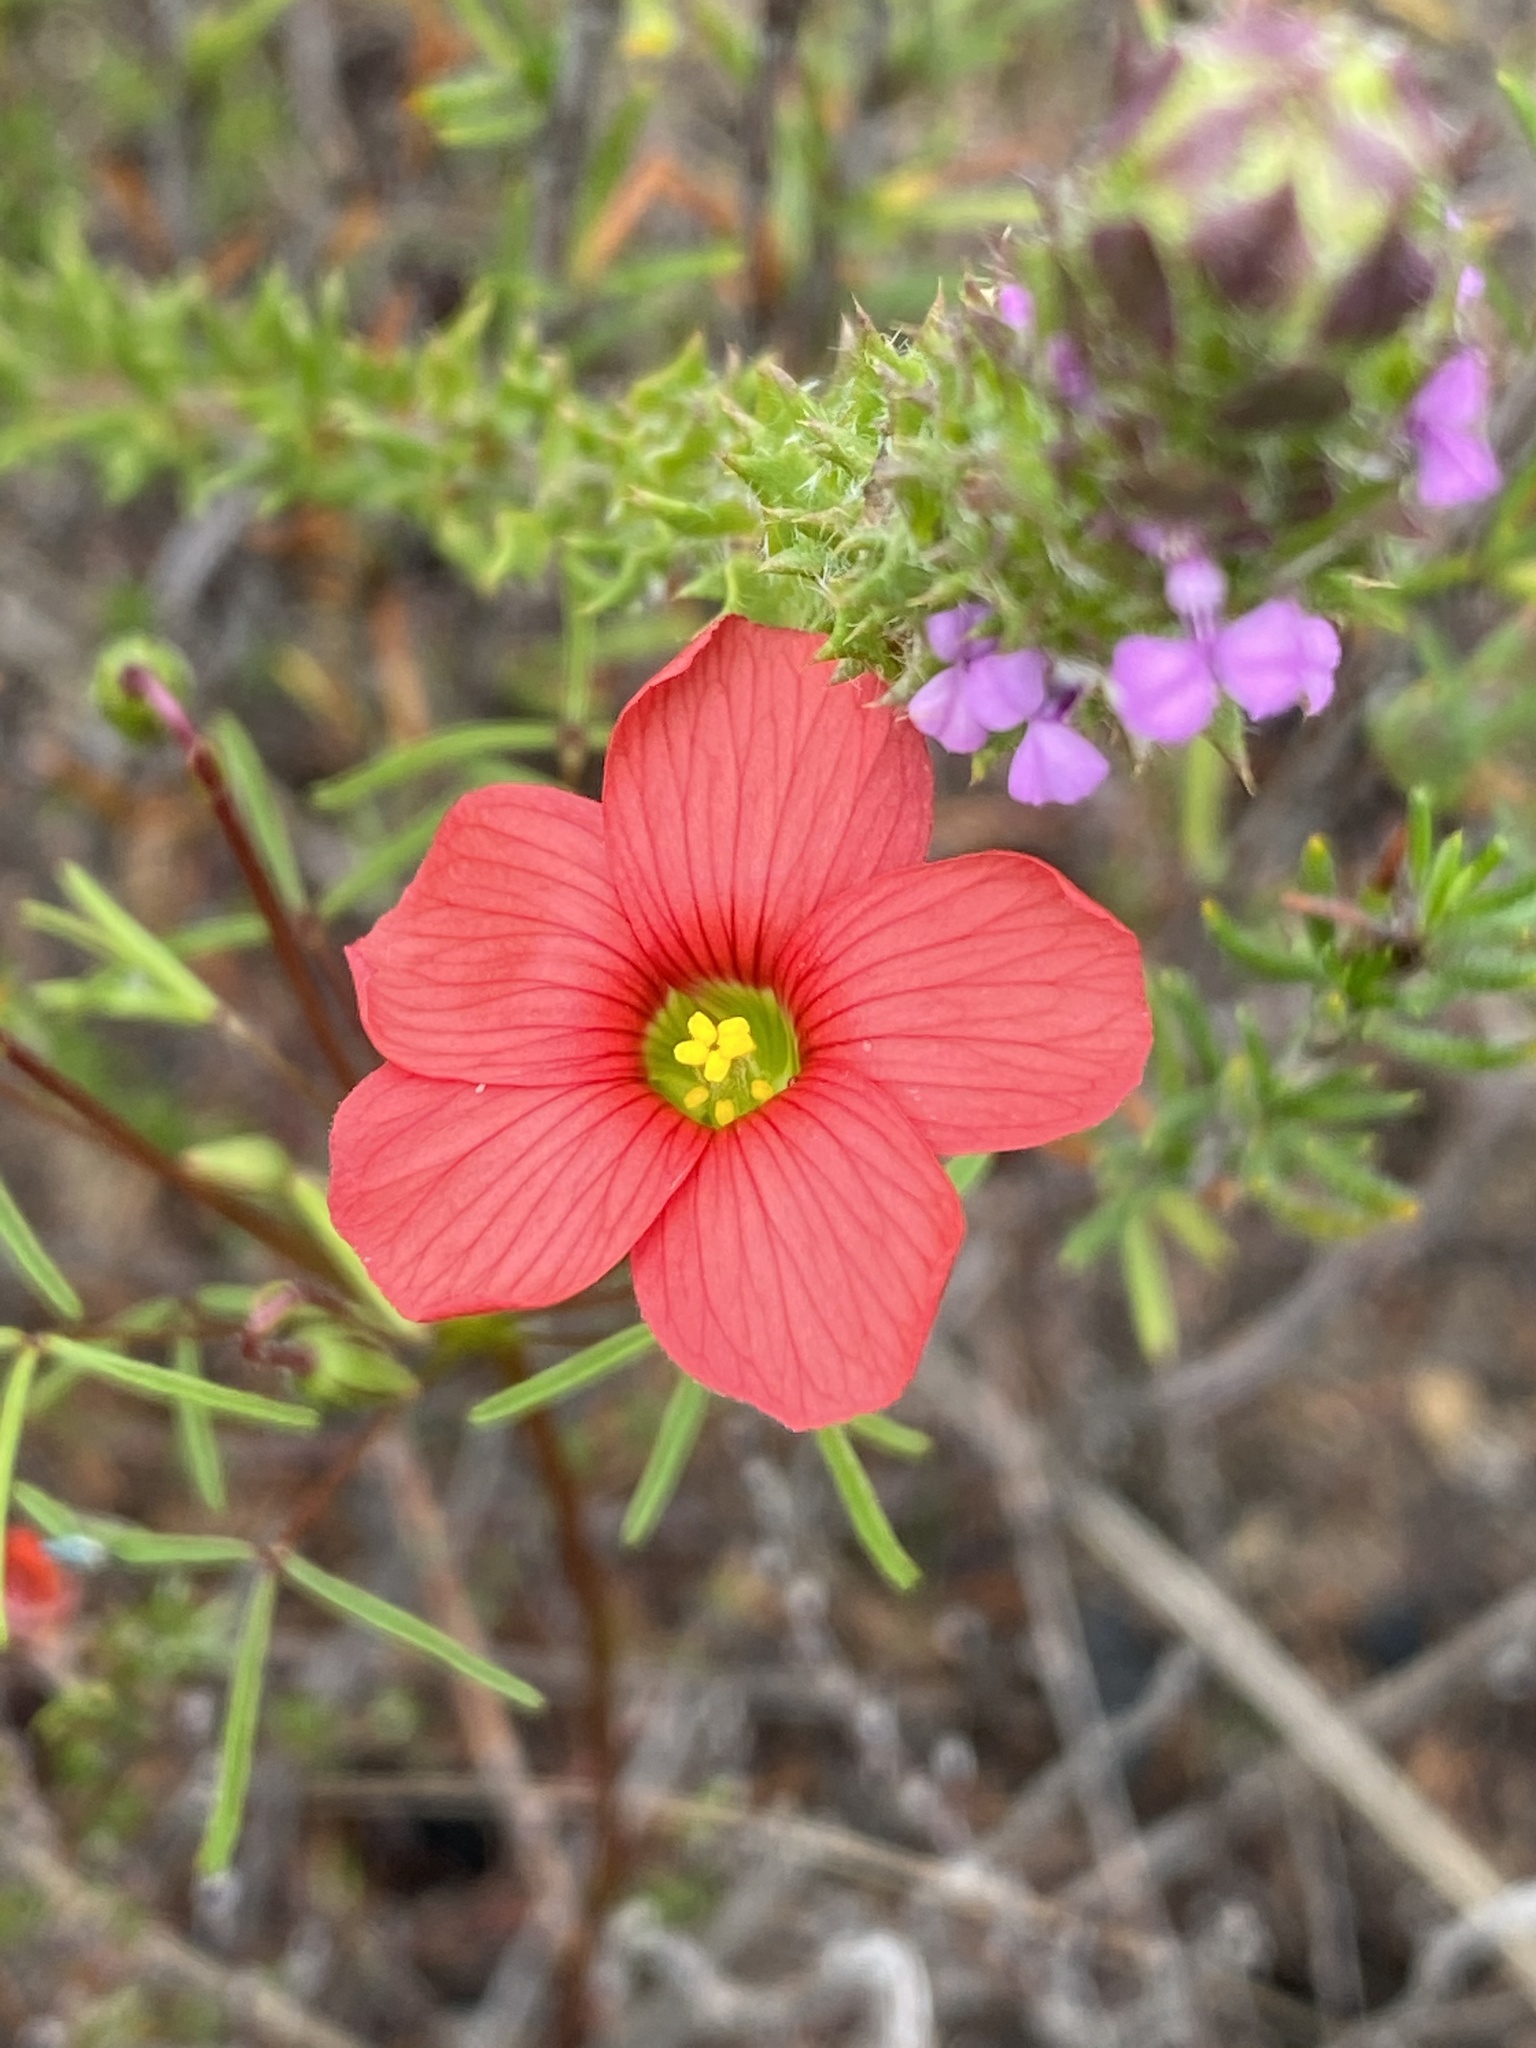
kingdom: Plantae
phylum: Tracheophyta
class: Magnoliopsida
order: Oxalidales
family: Oxalidaceae
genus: Oxalis
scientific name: Oxalis pendulifolia
